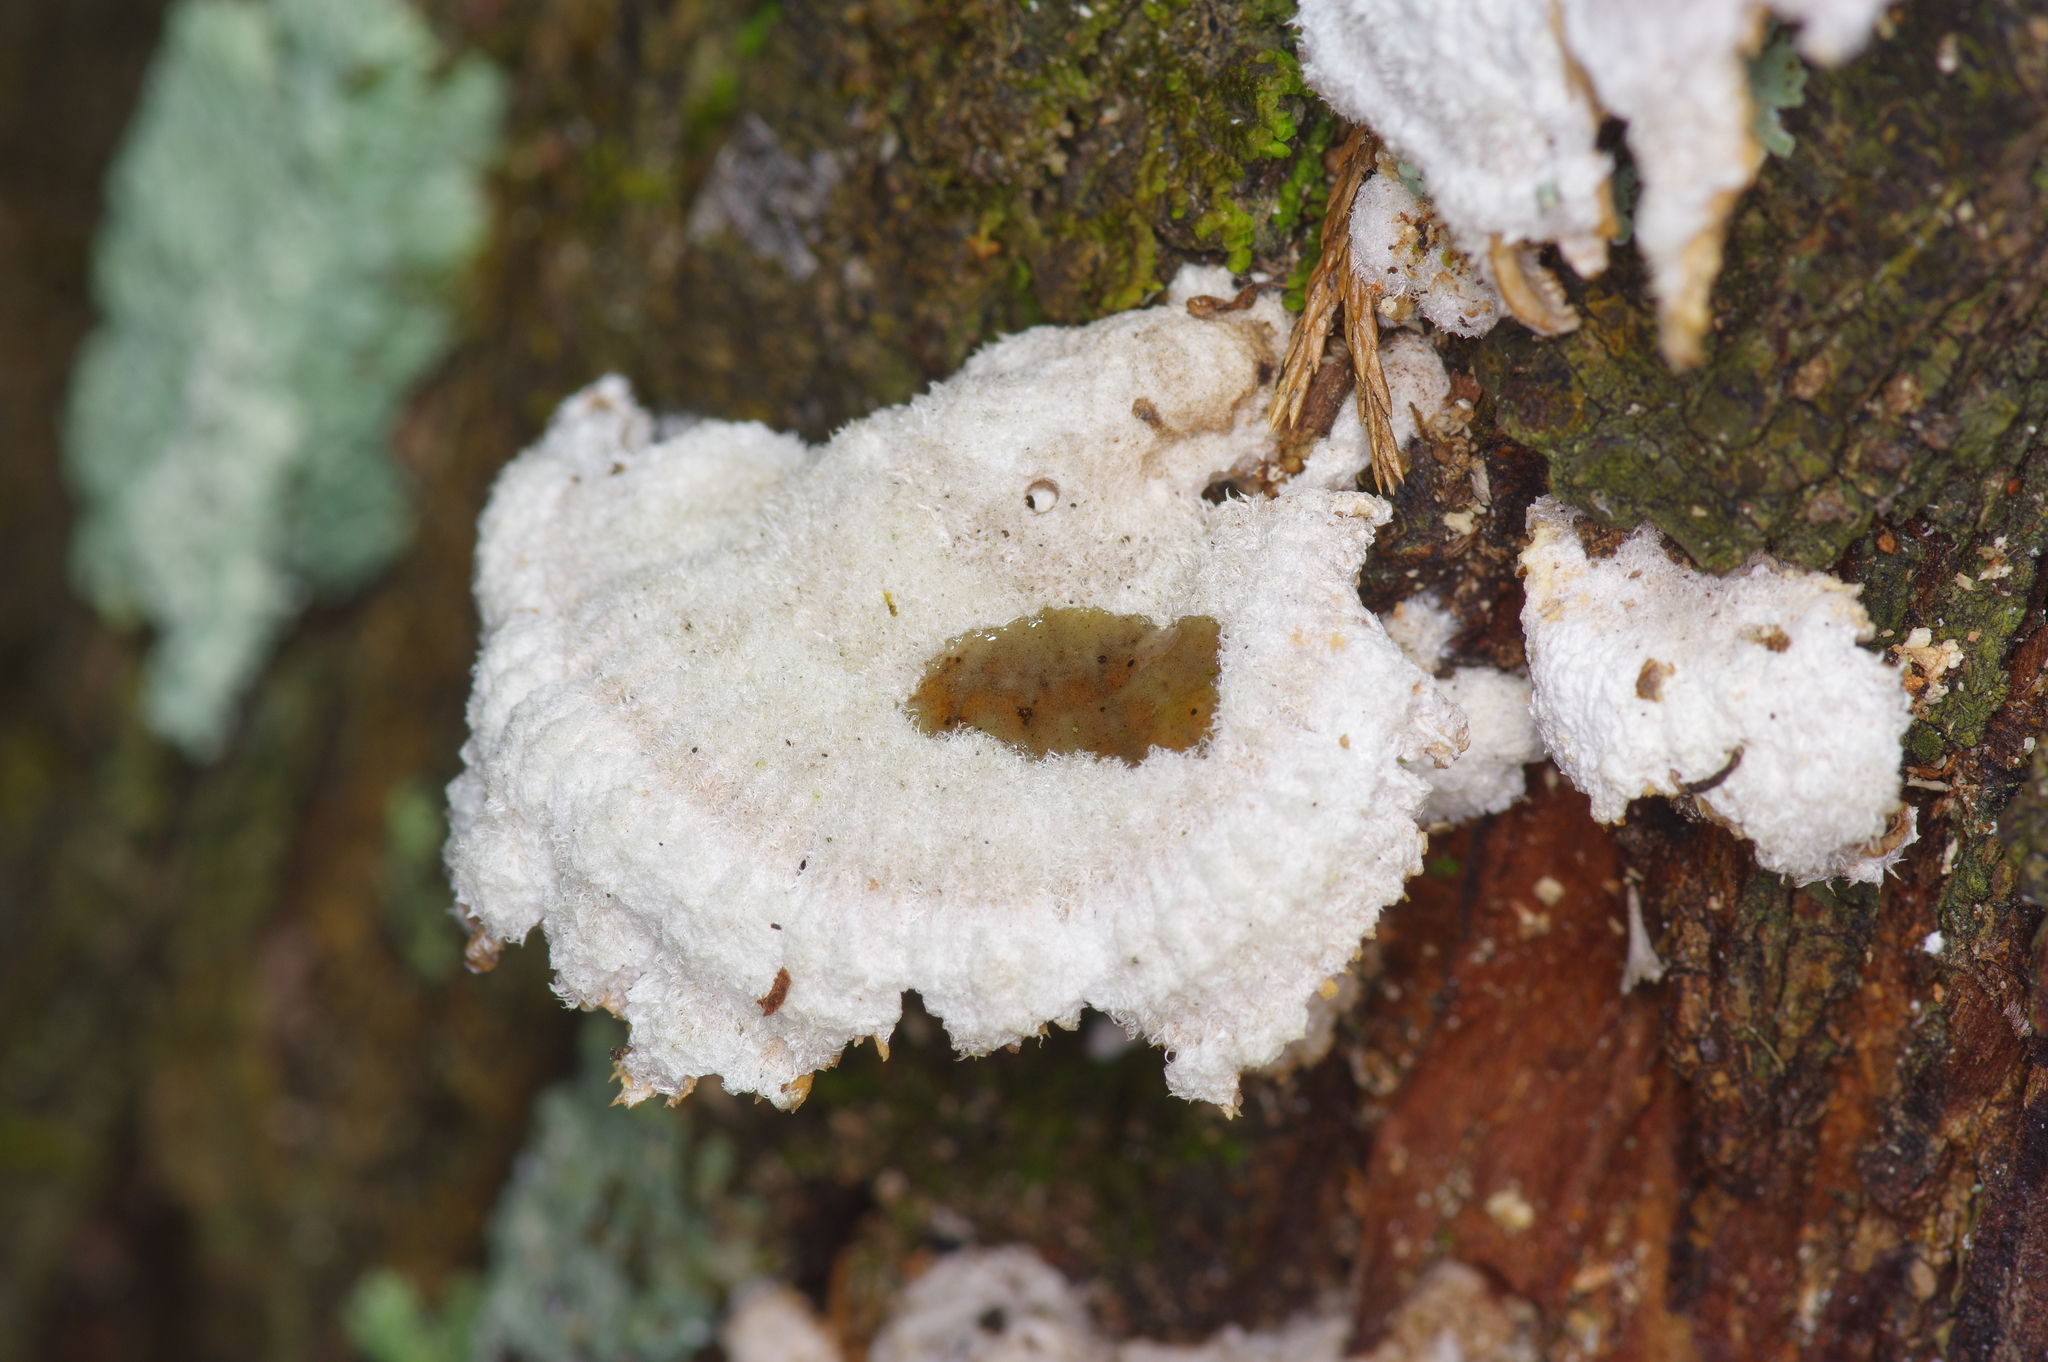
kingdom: Fungi
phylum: Basidiomycota
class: Agaricomycetes
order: Agaricales
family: Schizophyllaceae
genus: Schizophyllum
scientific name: Schizophyllum commune
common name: Common porecrust
